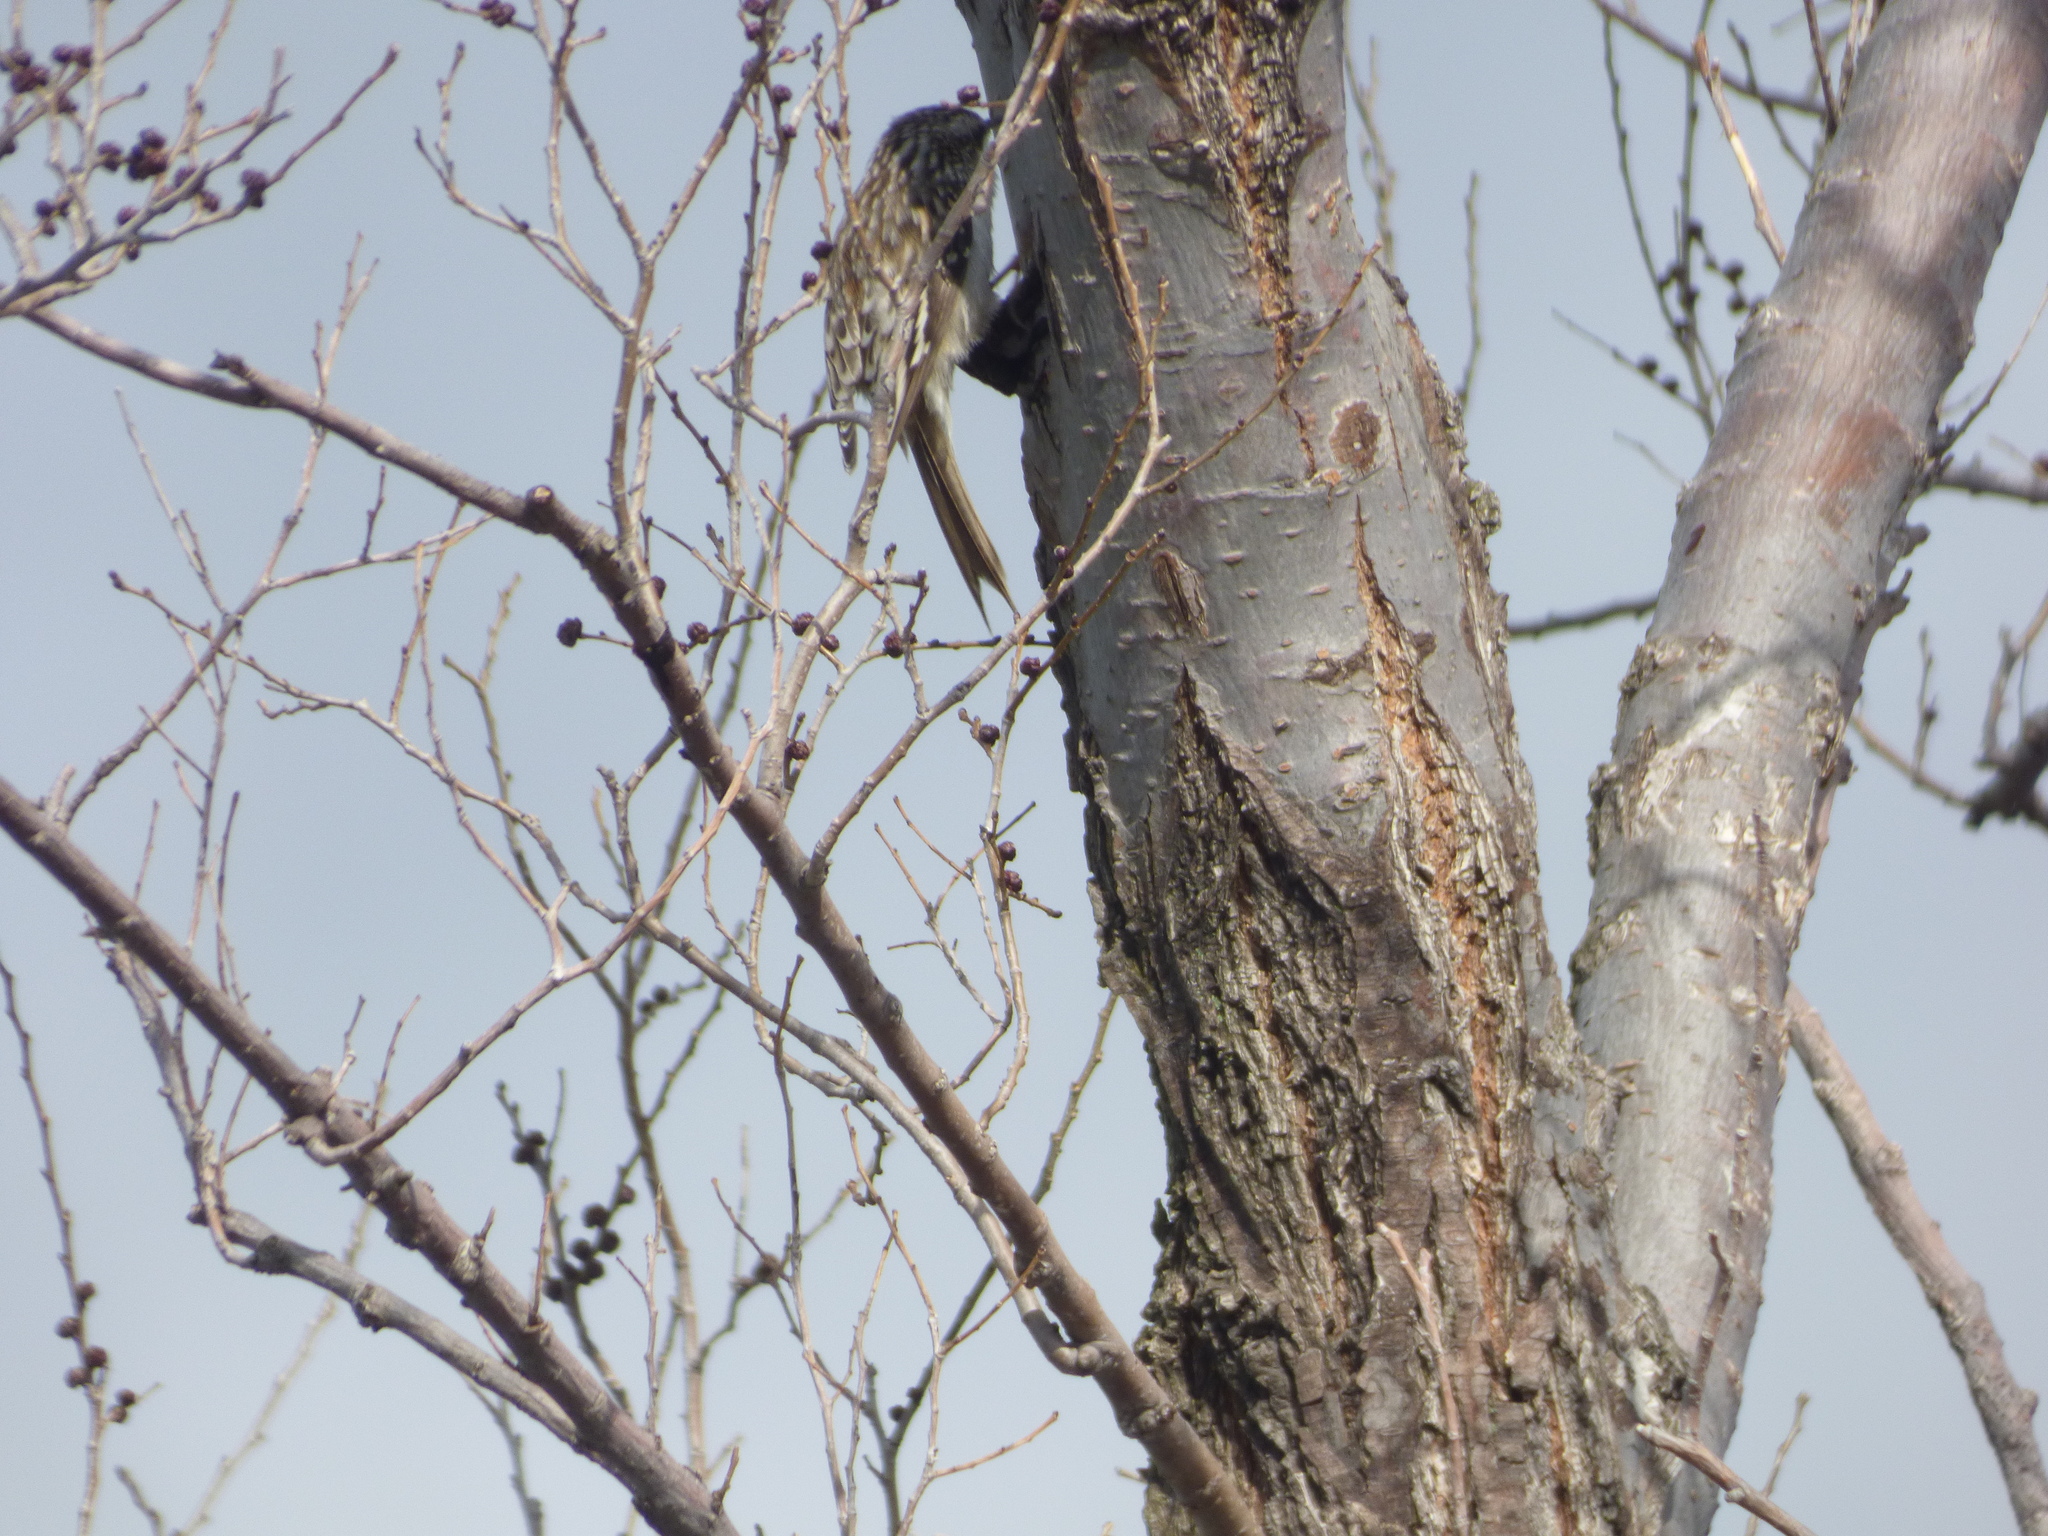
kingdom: Animalia
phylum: Chordata
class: Aves
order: Passeriformes
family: Certhiidae
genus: Certhia
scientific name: Certhia americana
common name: Brown creeper
